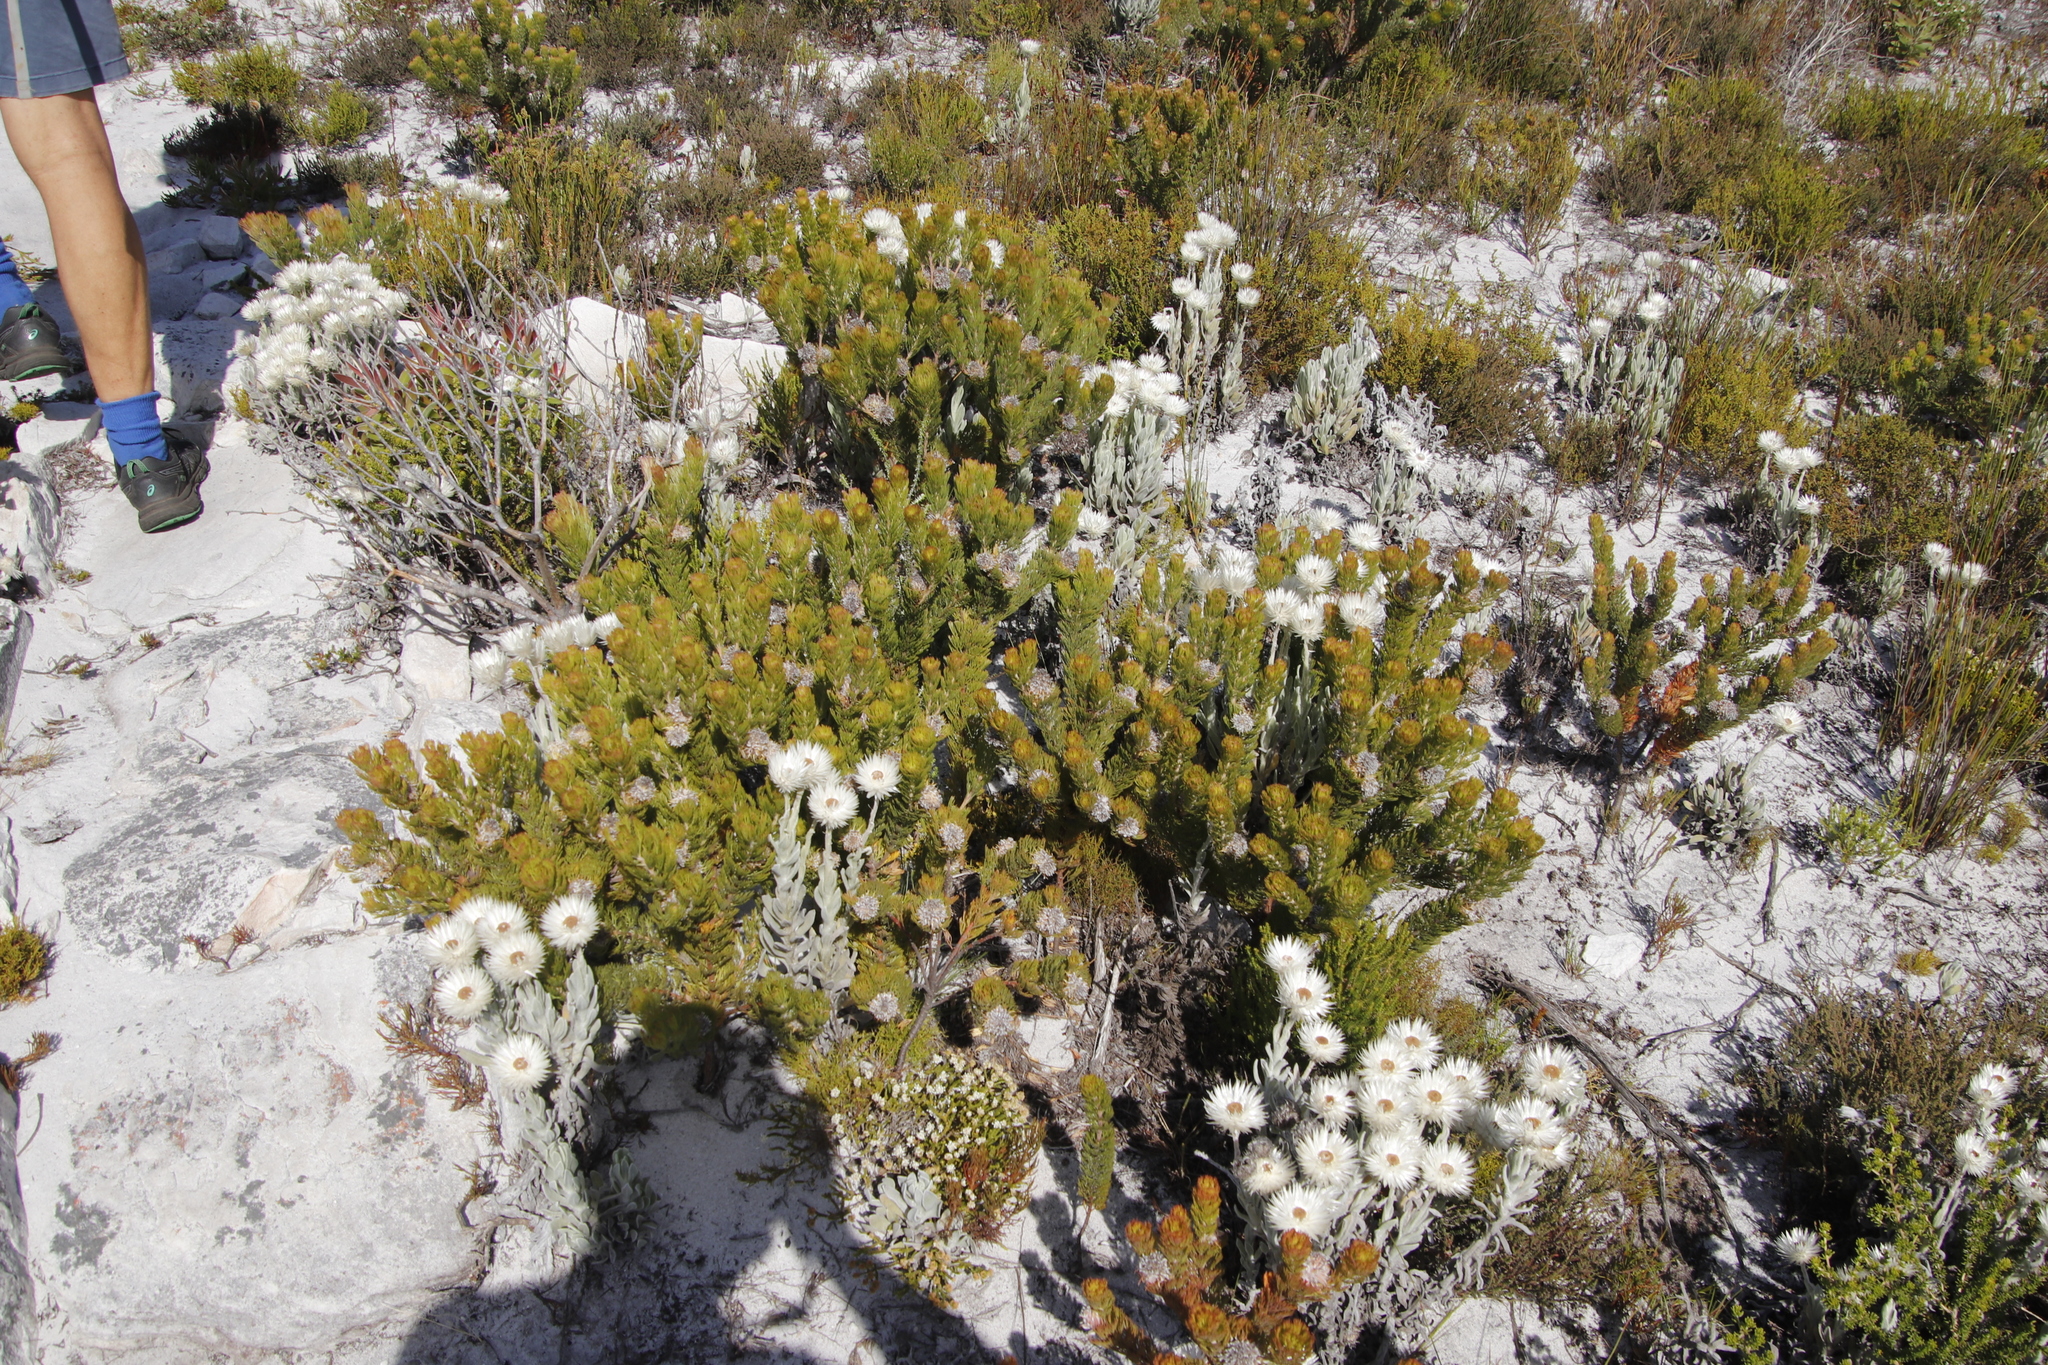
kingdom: Plantae
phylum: Tracheophyta
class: Magnoliopsida
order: Proteales
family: Proteaceae
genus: Serruria
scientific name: Serruria villosa
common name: Golden spiderhead
